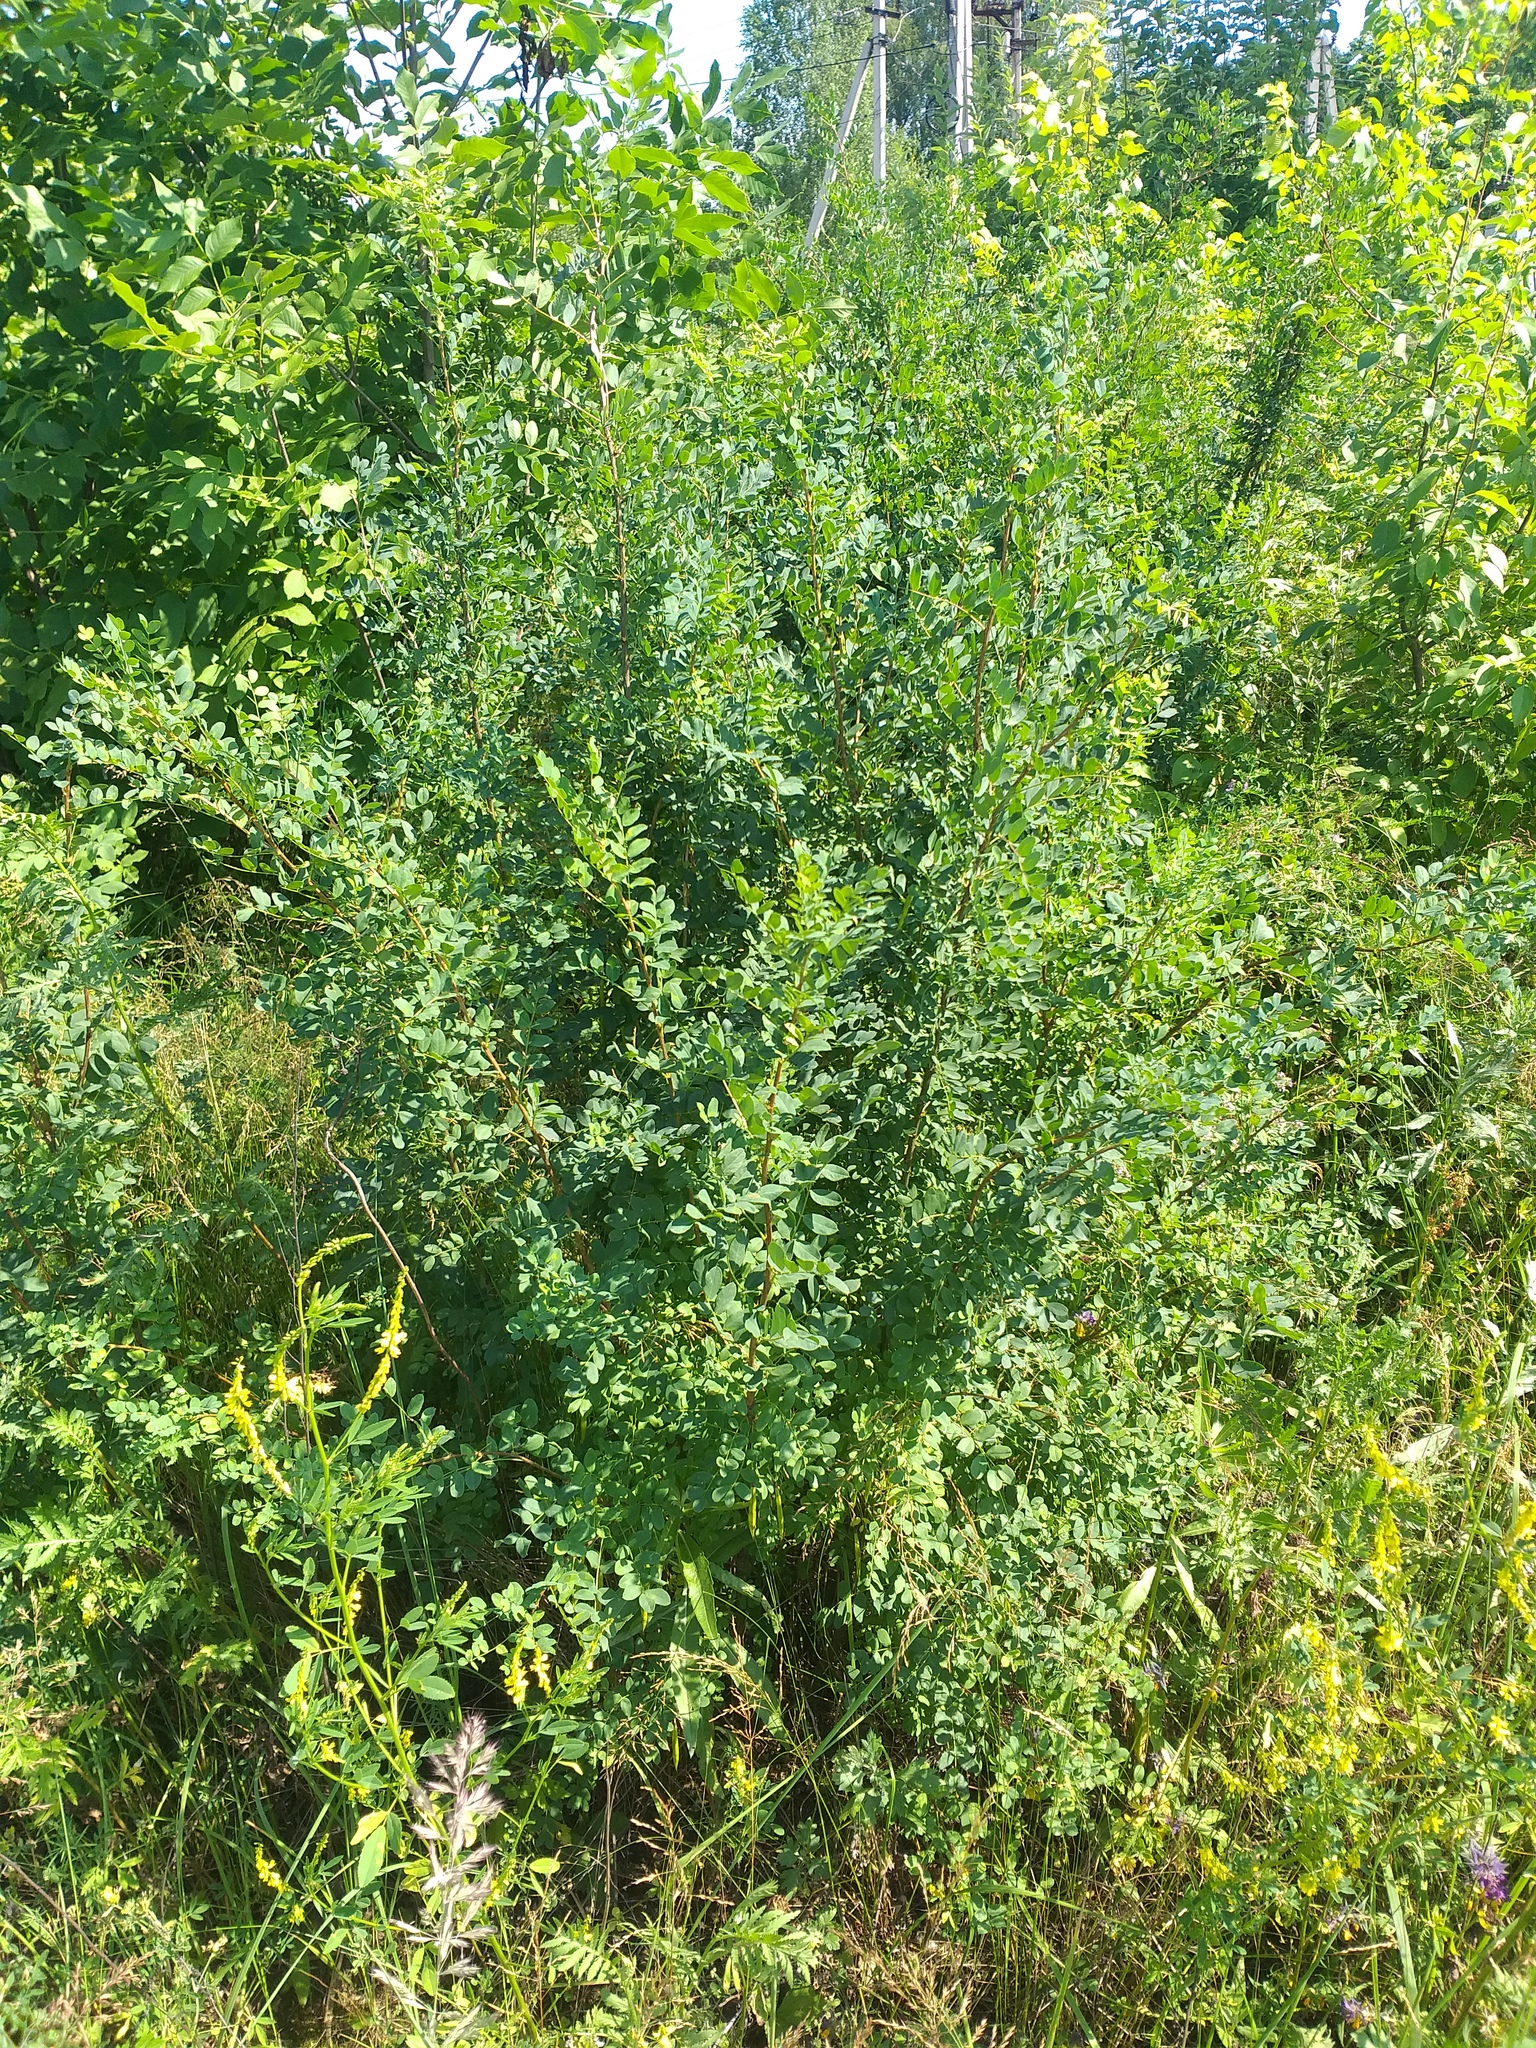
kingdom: Plantae
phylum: Tracheophyta
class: Magnoliopsida
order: Fabales
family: Fabaceae
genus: Caragana
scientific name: Caragana arborescens
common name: Siberian peashrub
